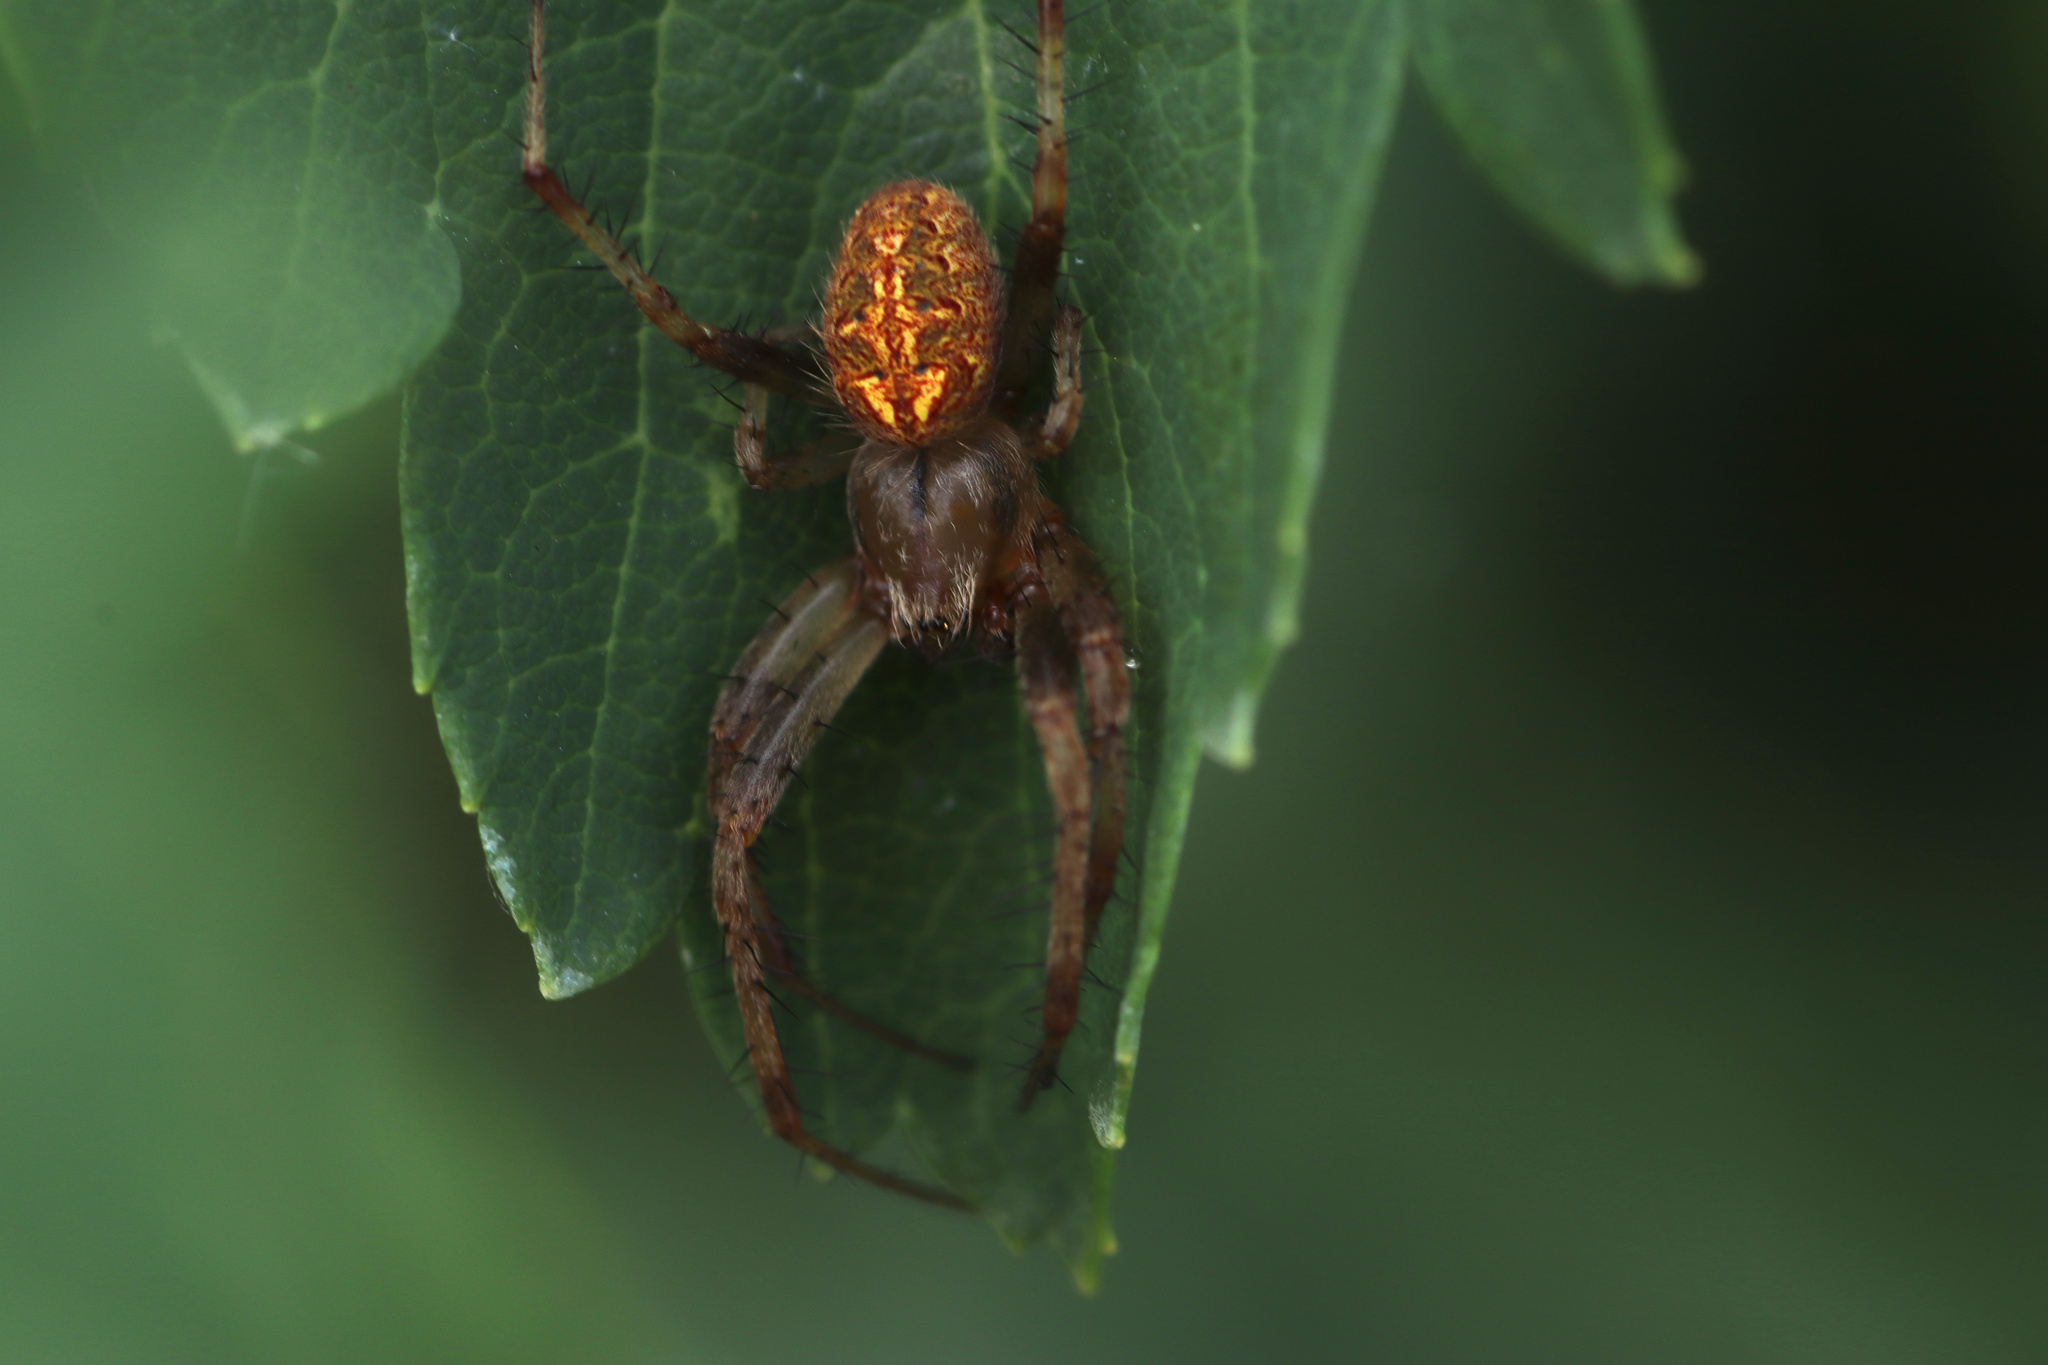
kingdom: Animalia
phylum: Arthropoda
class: Arachnida
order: Araneae
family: Araneidae
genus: Neoscona
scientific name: Neoscona arabesca
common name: Orb weavers
